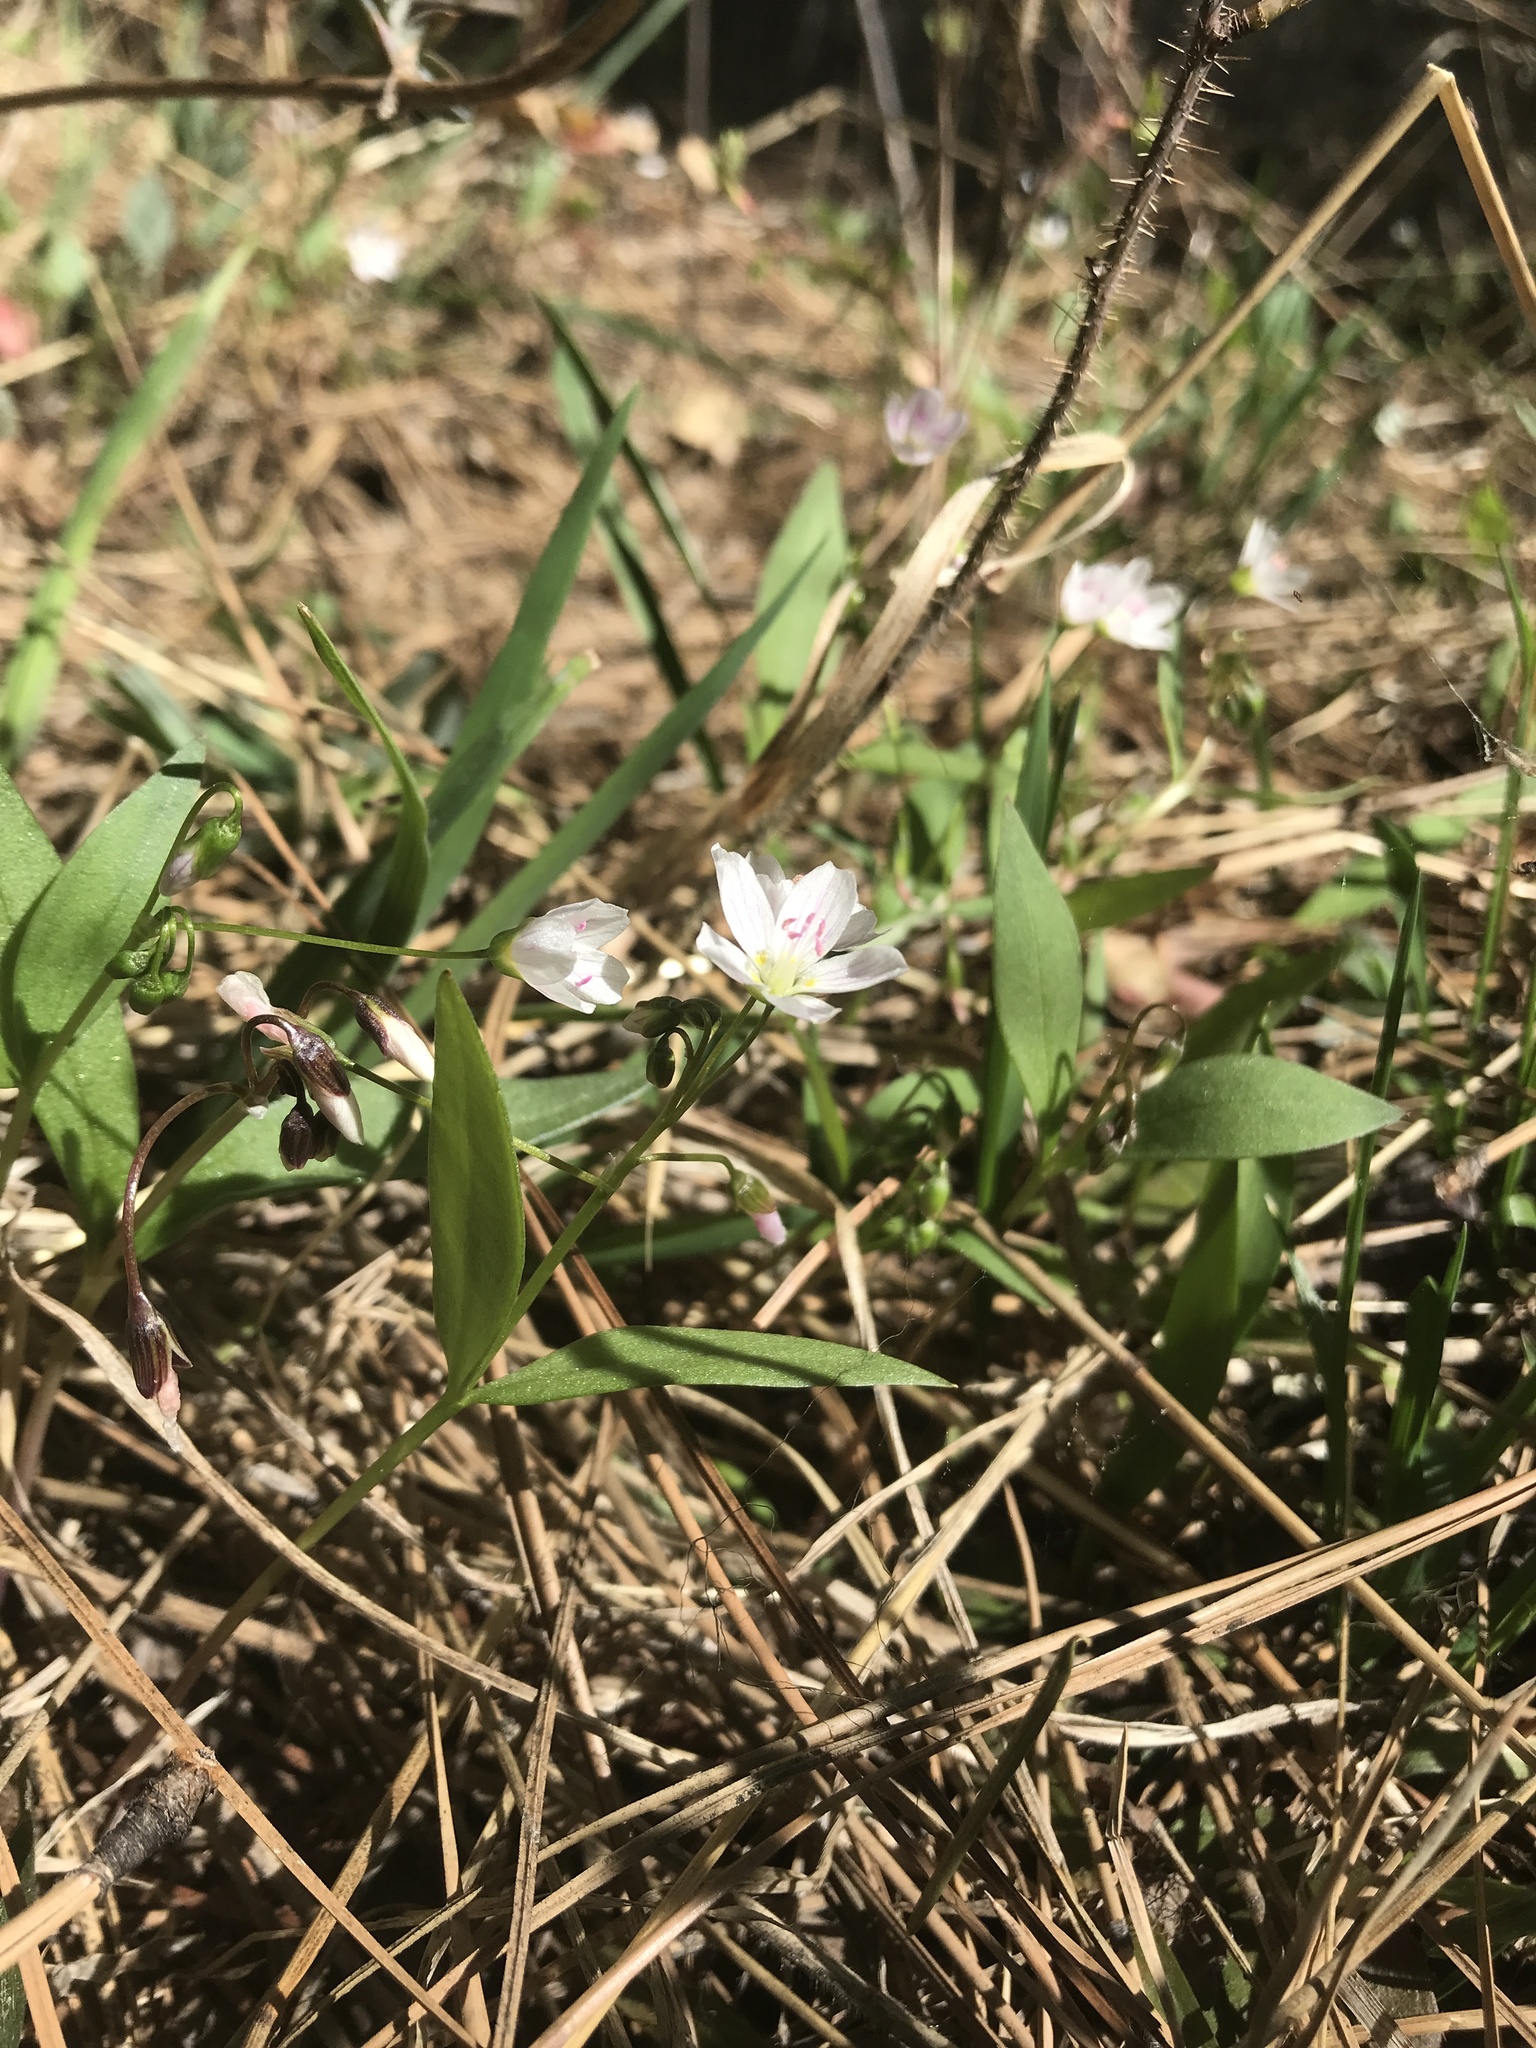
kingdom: Plantae
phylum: Tracheophyta
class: Magnoliopsida
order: Caryophyllales
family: Montiaceae
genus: Claytonia
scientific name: Claytonia lanceolata
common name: Western spring-beauty
